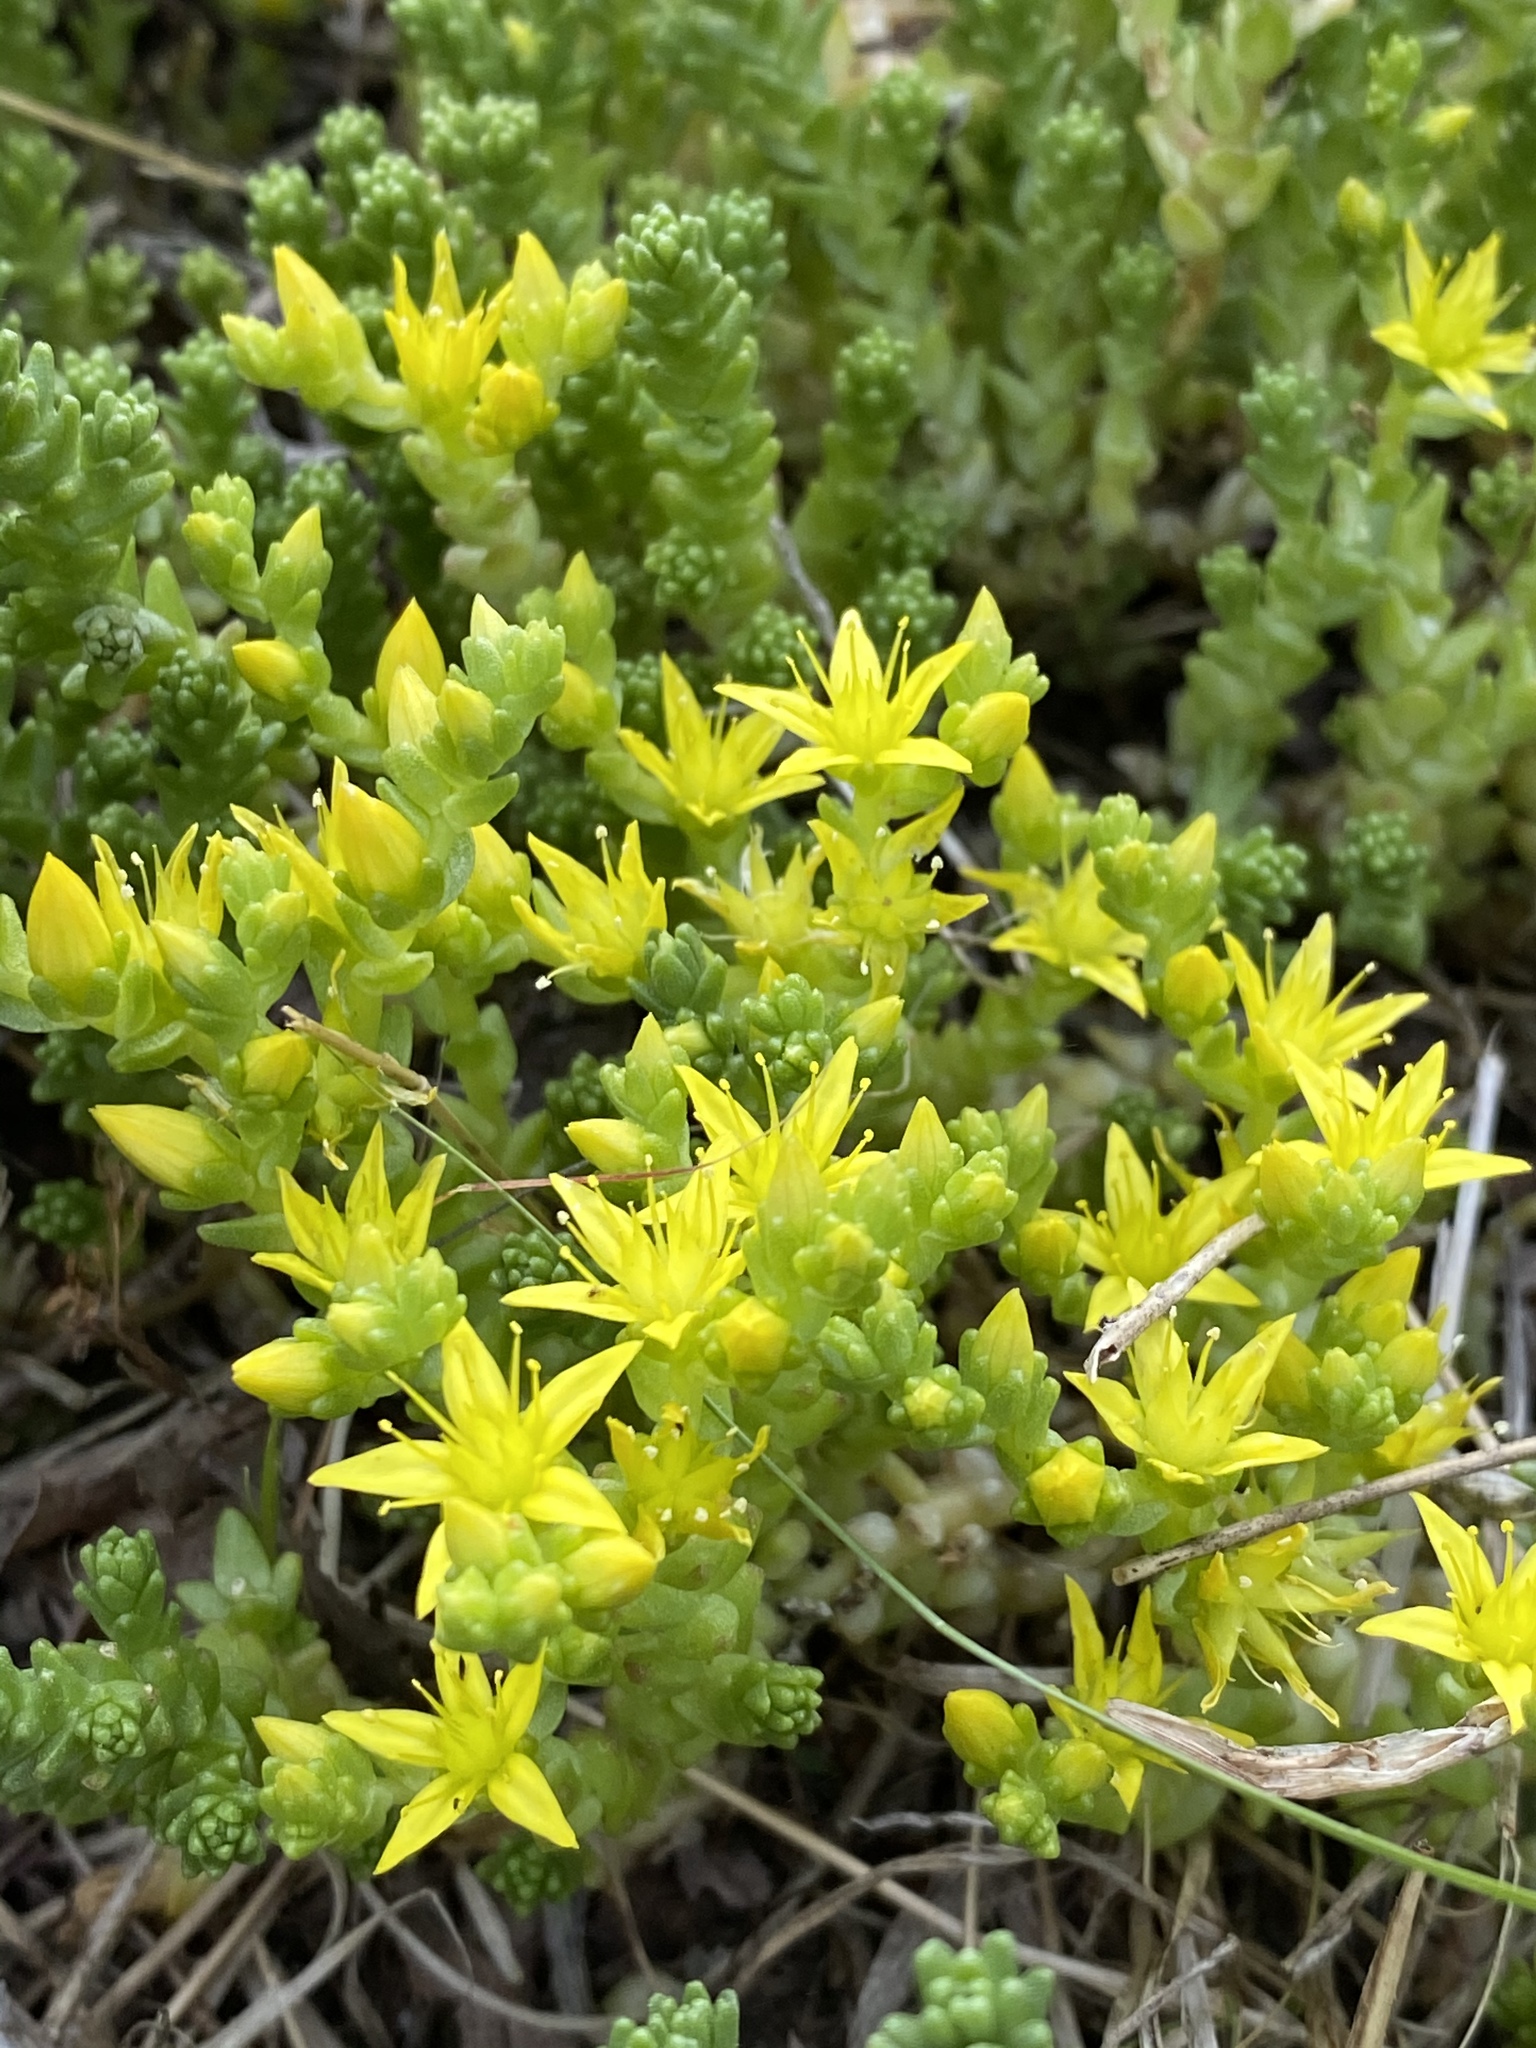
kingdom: Plantae
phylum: Tracheophyta
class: Magnoliopsida
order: Saxifragales
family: Crassulaceae
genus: Sedum
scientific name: Sedum acre
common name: Biting stonecrop
